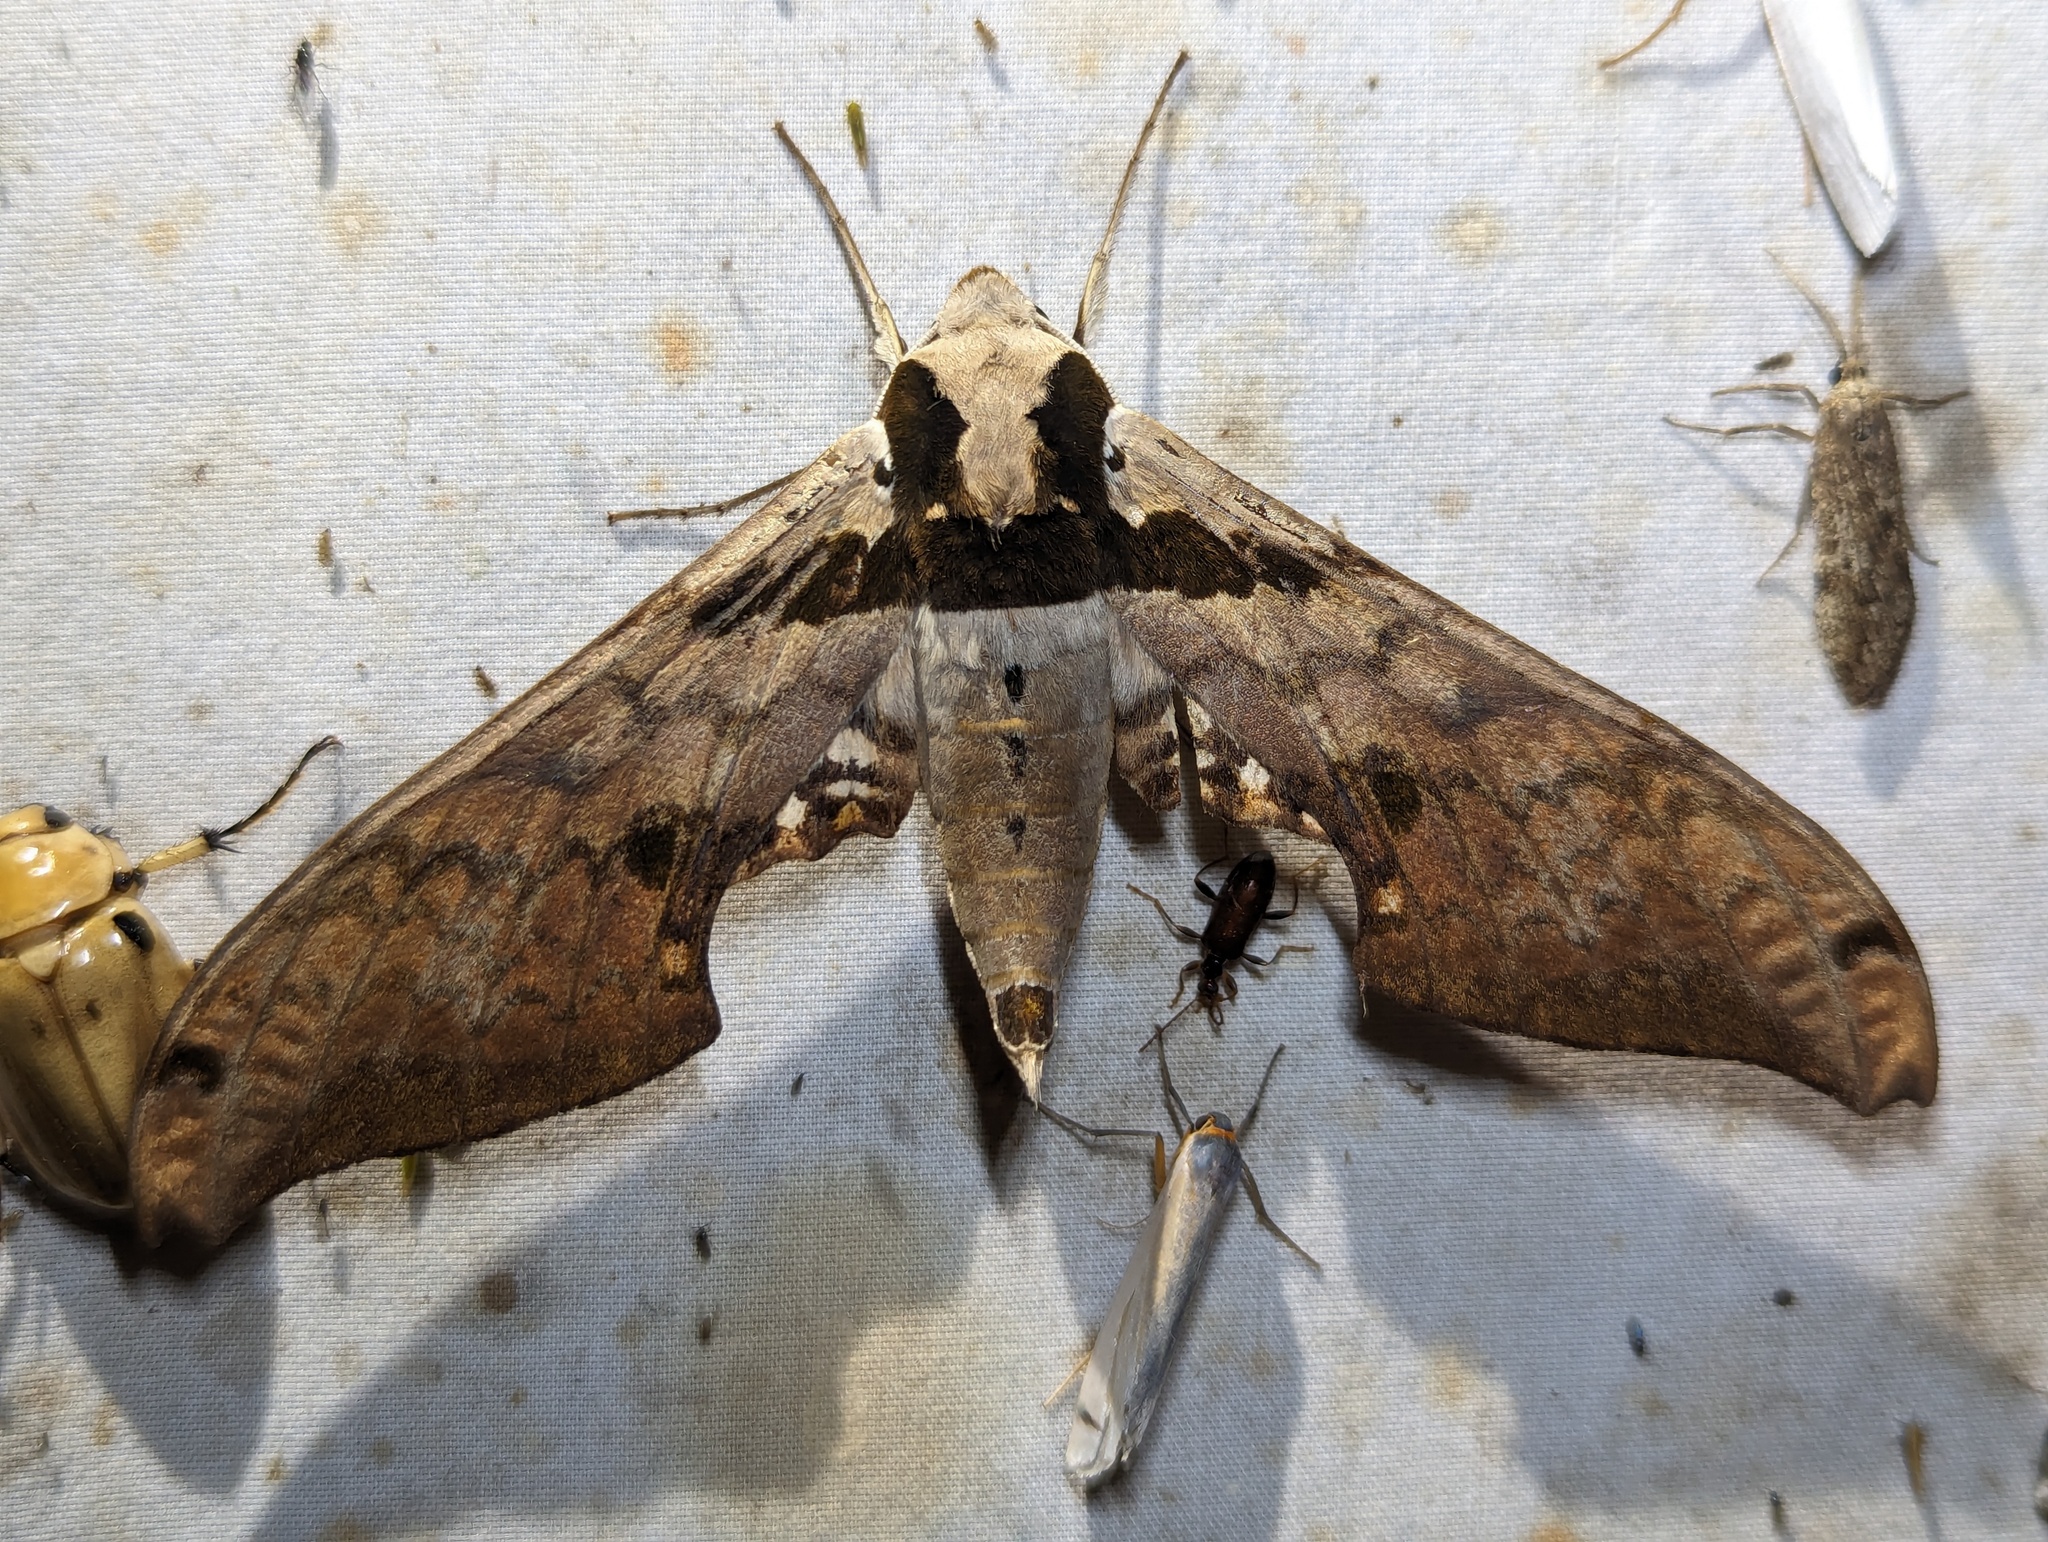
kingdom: Animalia
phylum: Arthropoda
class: Insecta
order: Lepidoptera
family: Sphingidae
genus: Adhemarius
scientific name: Adhemarius gannascus
